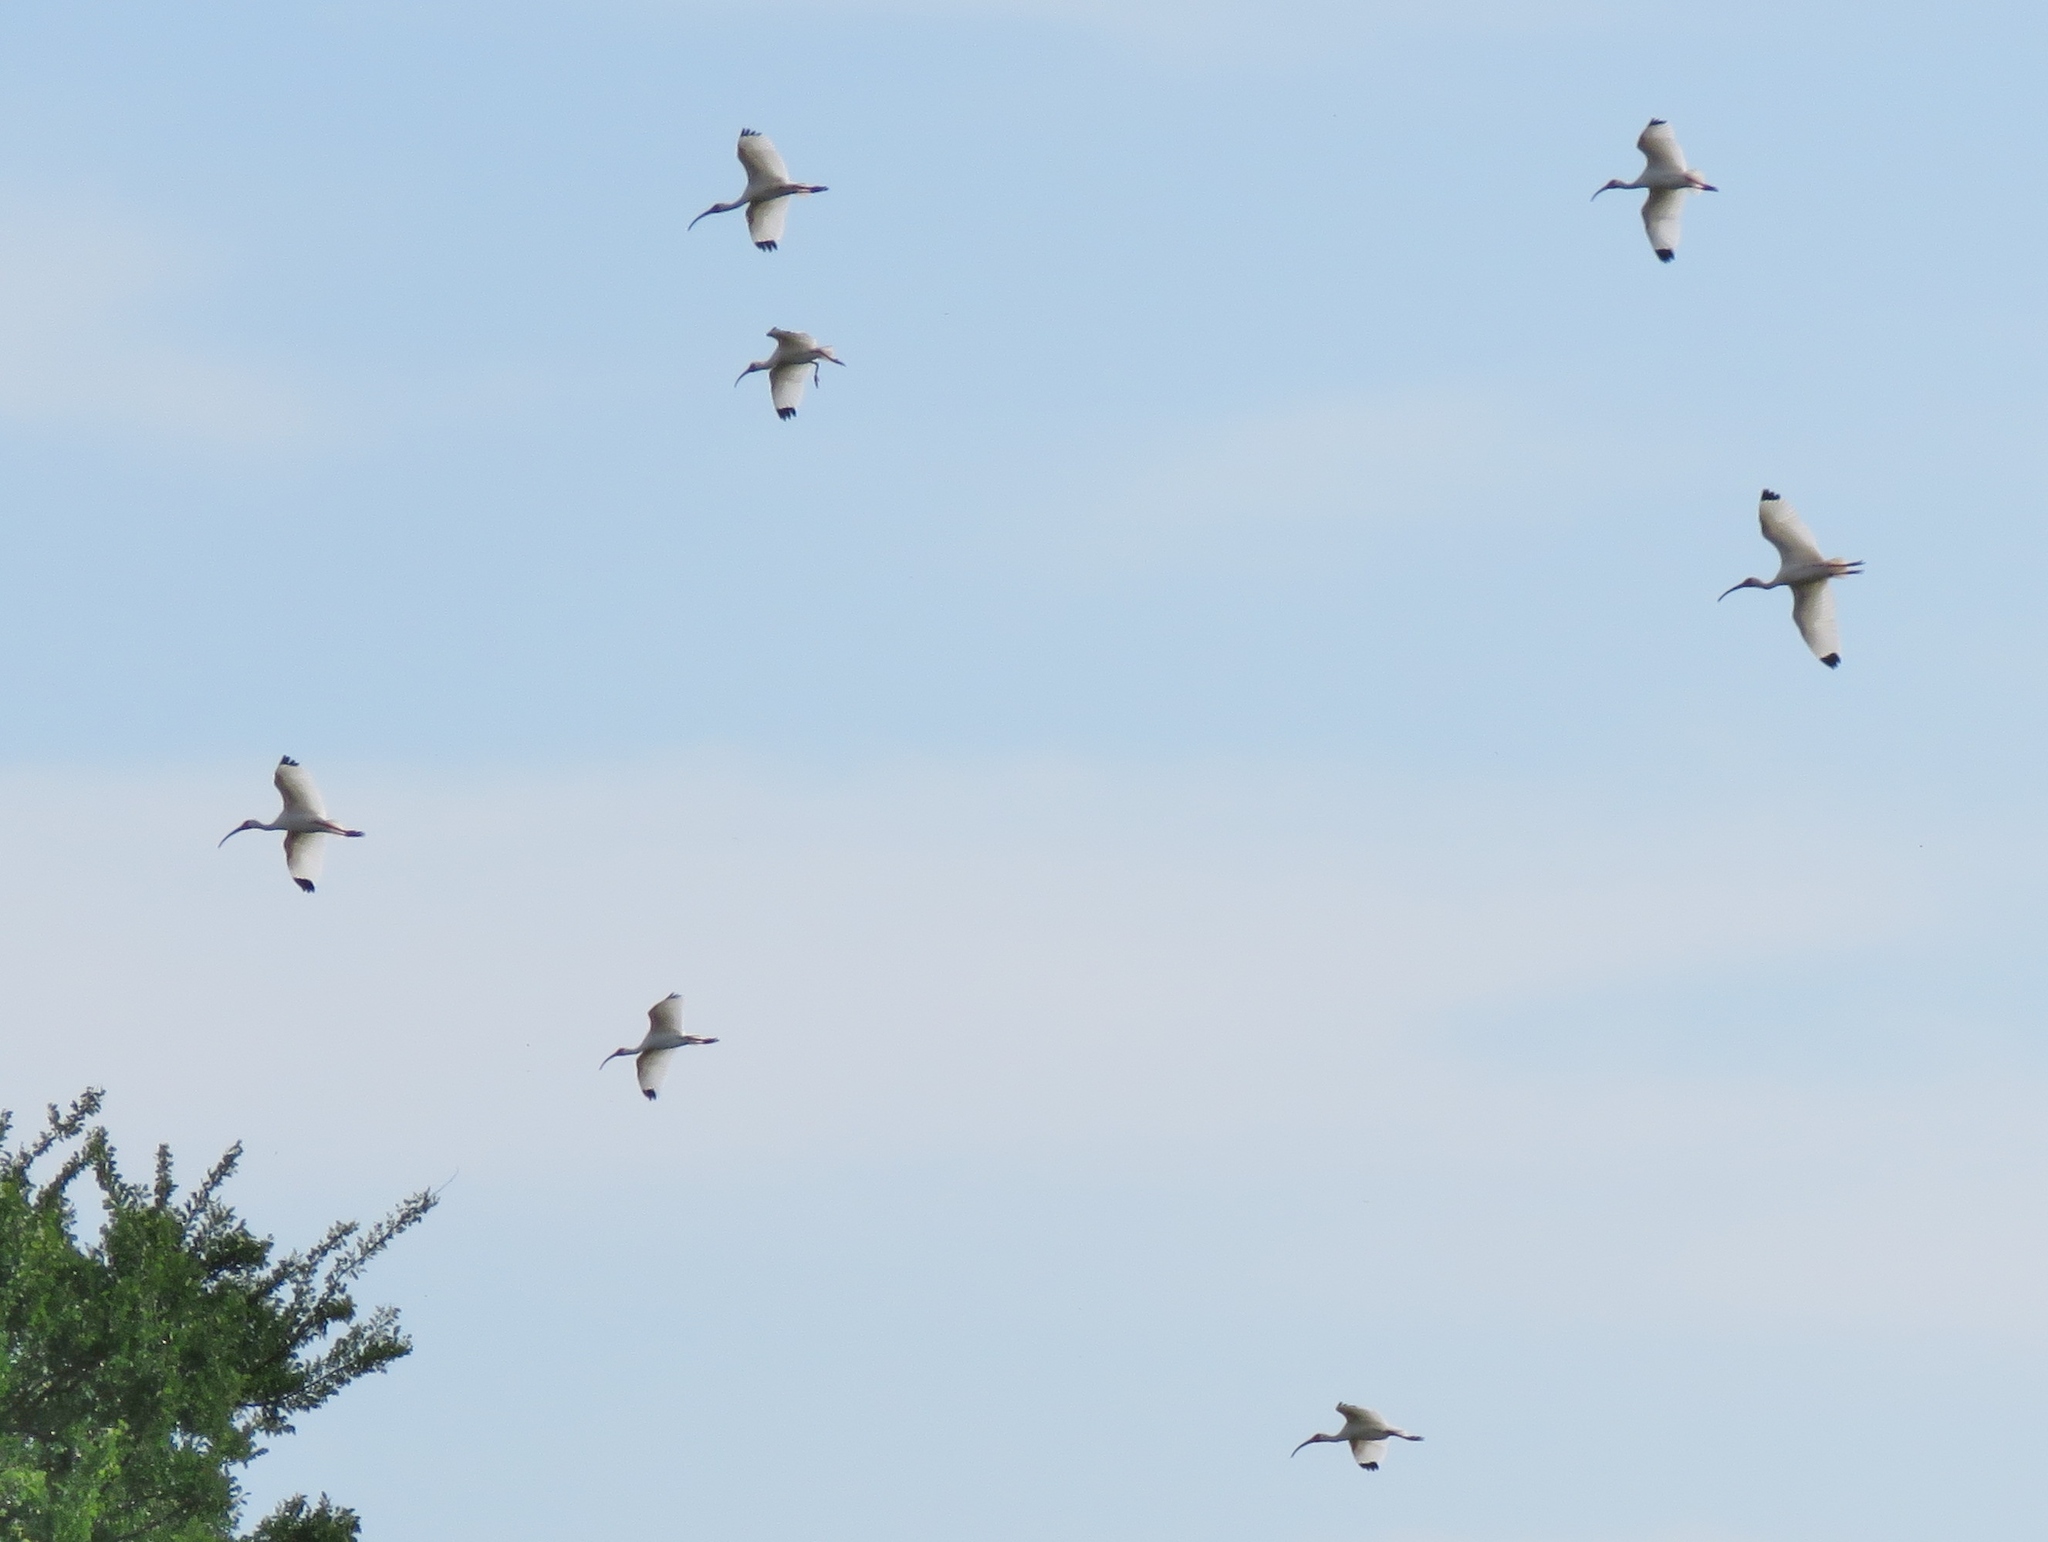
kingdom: Animalia
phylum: Chordata
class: Aves
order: Pelecaniformes
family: Threskiornithidae
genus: Eudocimus
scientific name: Eudocimus albus
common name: White ibis
